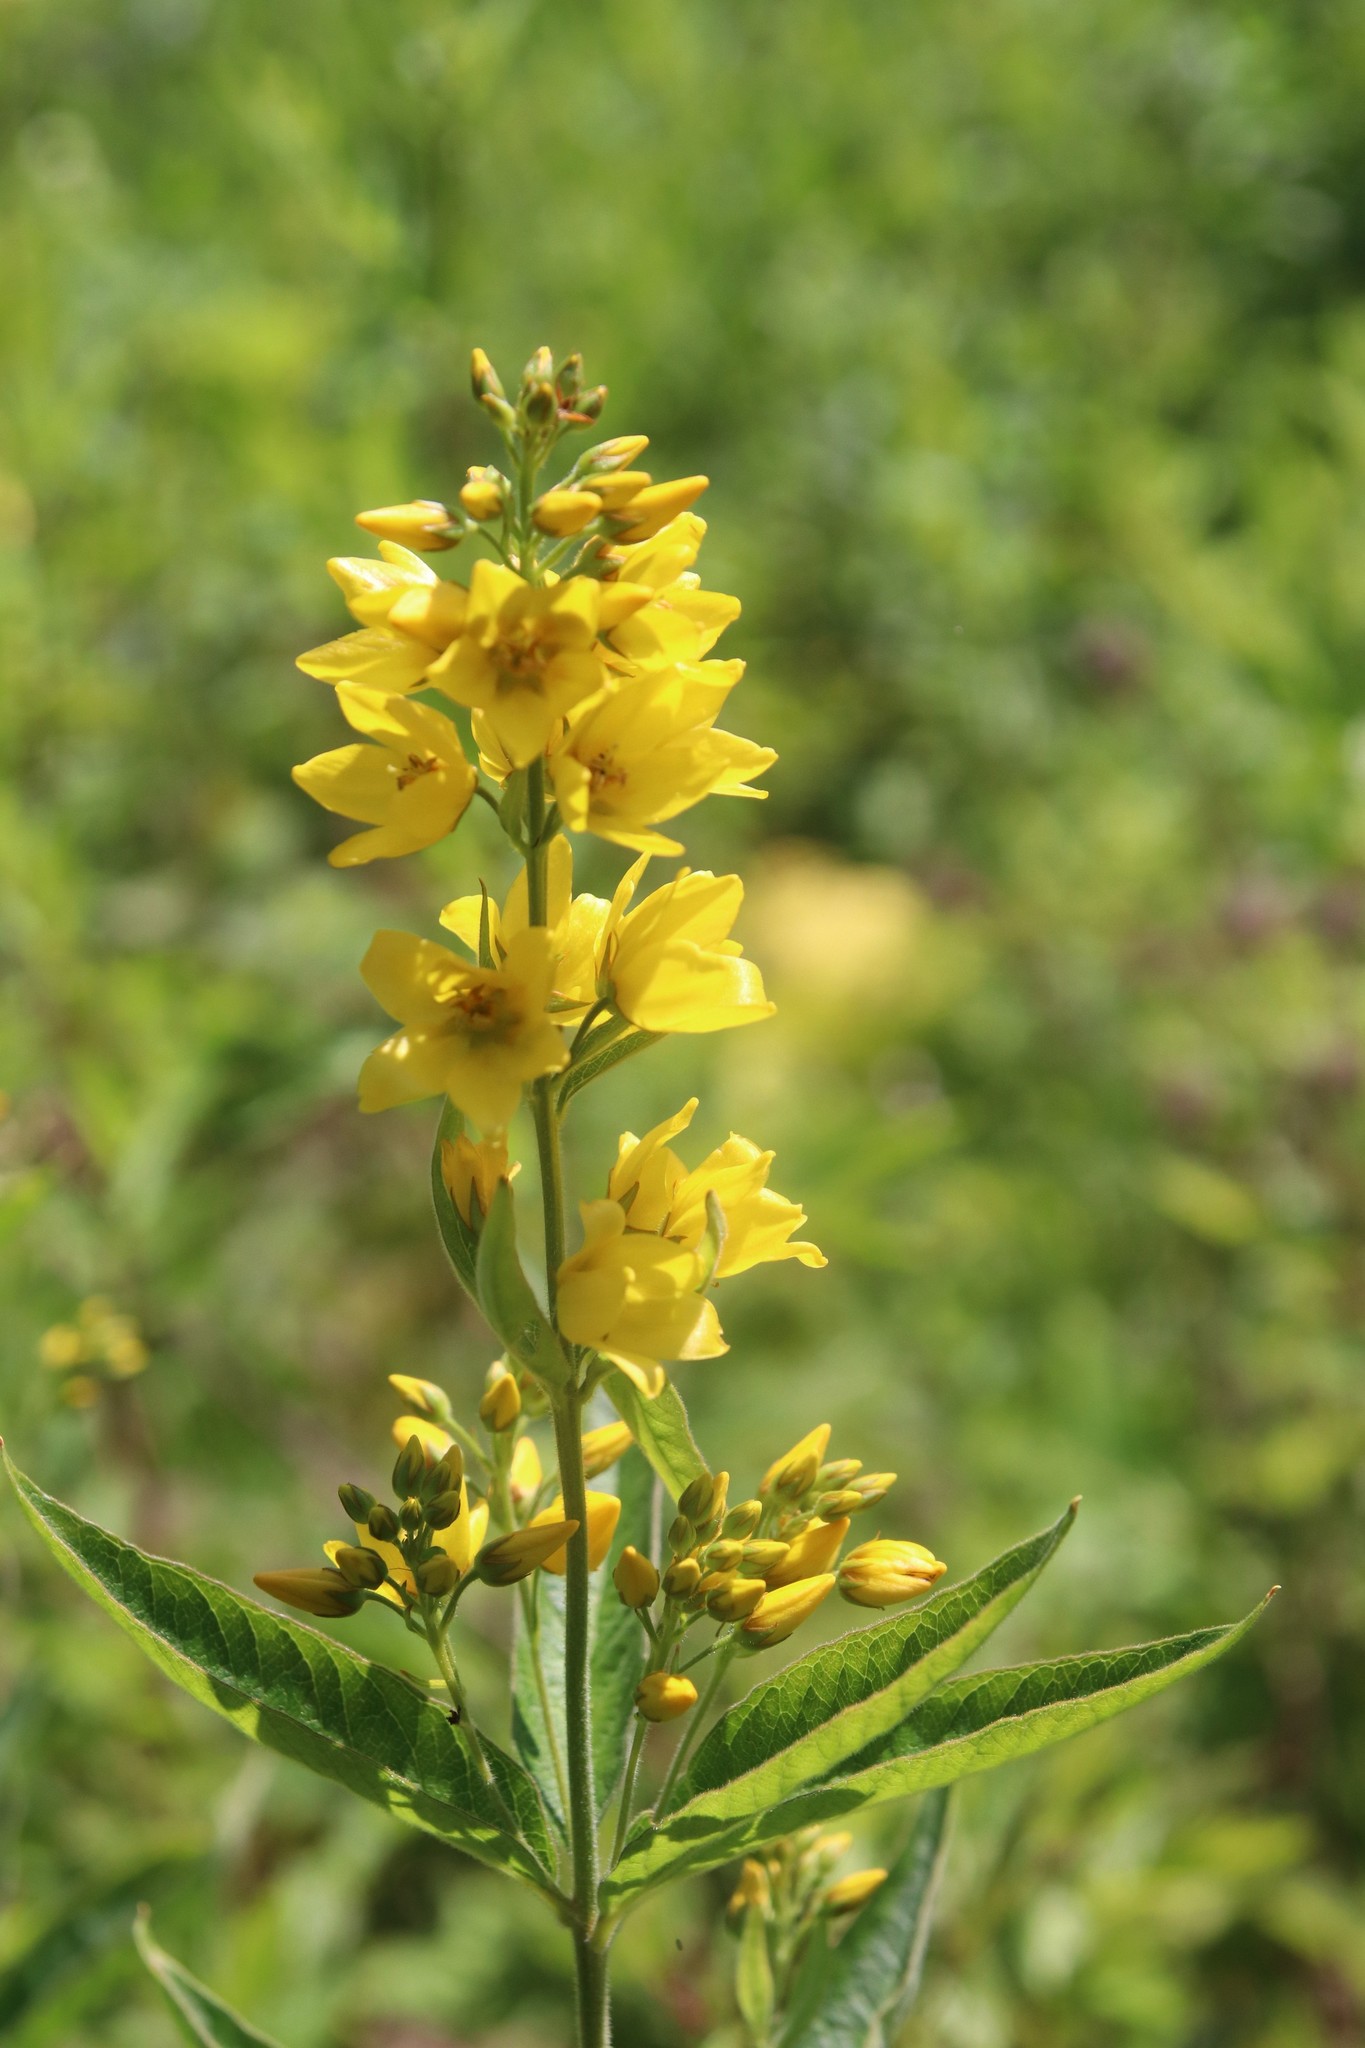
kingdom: Plantae
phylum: Tracheophyta
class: Magnoliopsida
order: Ericales
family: Primulaceae
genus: Lysimachia
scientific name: Lysimachia vulgaris
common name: Yellow loosestrife
